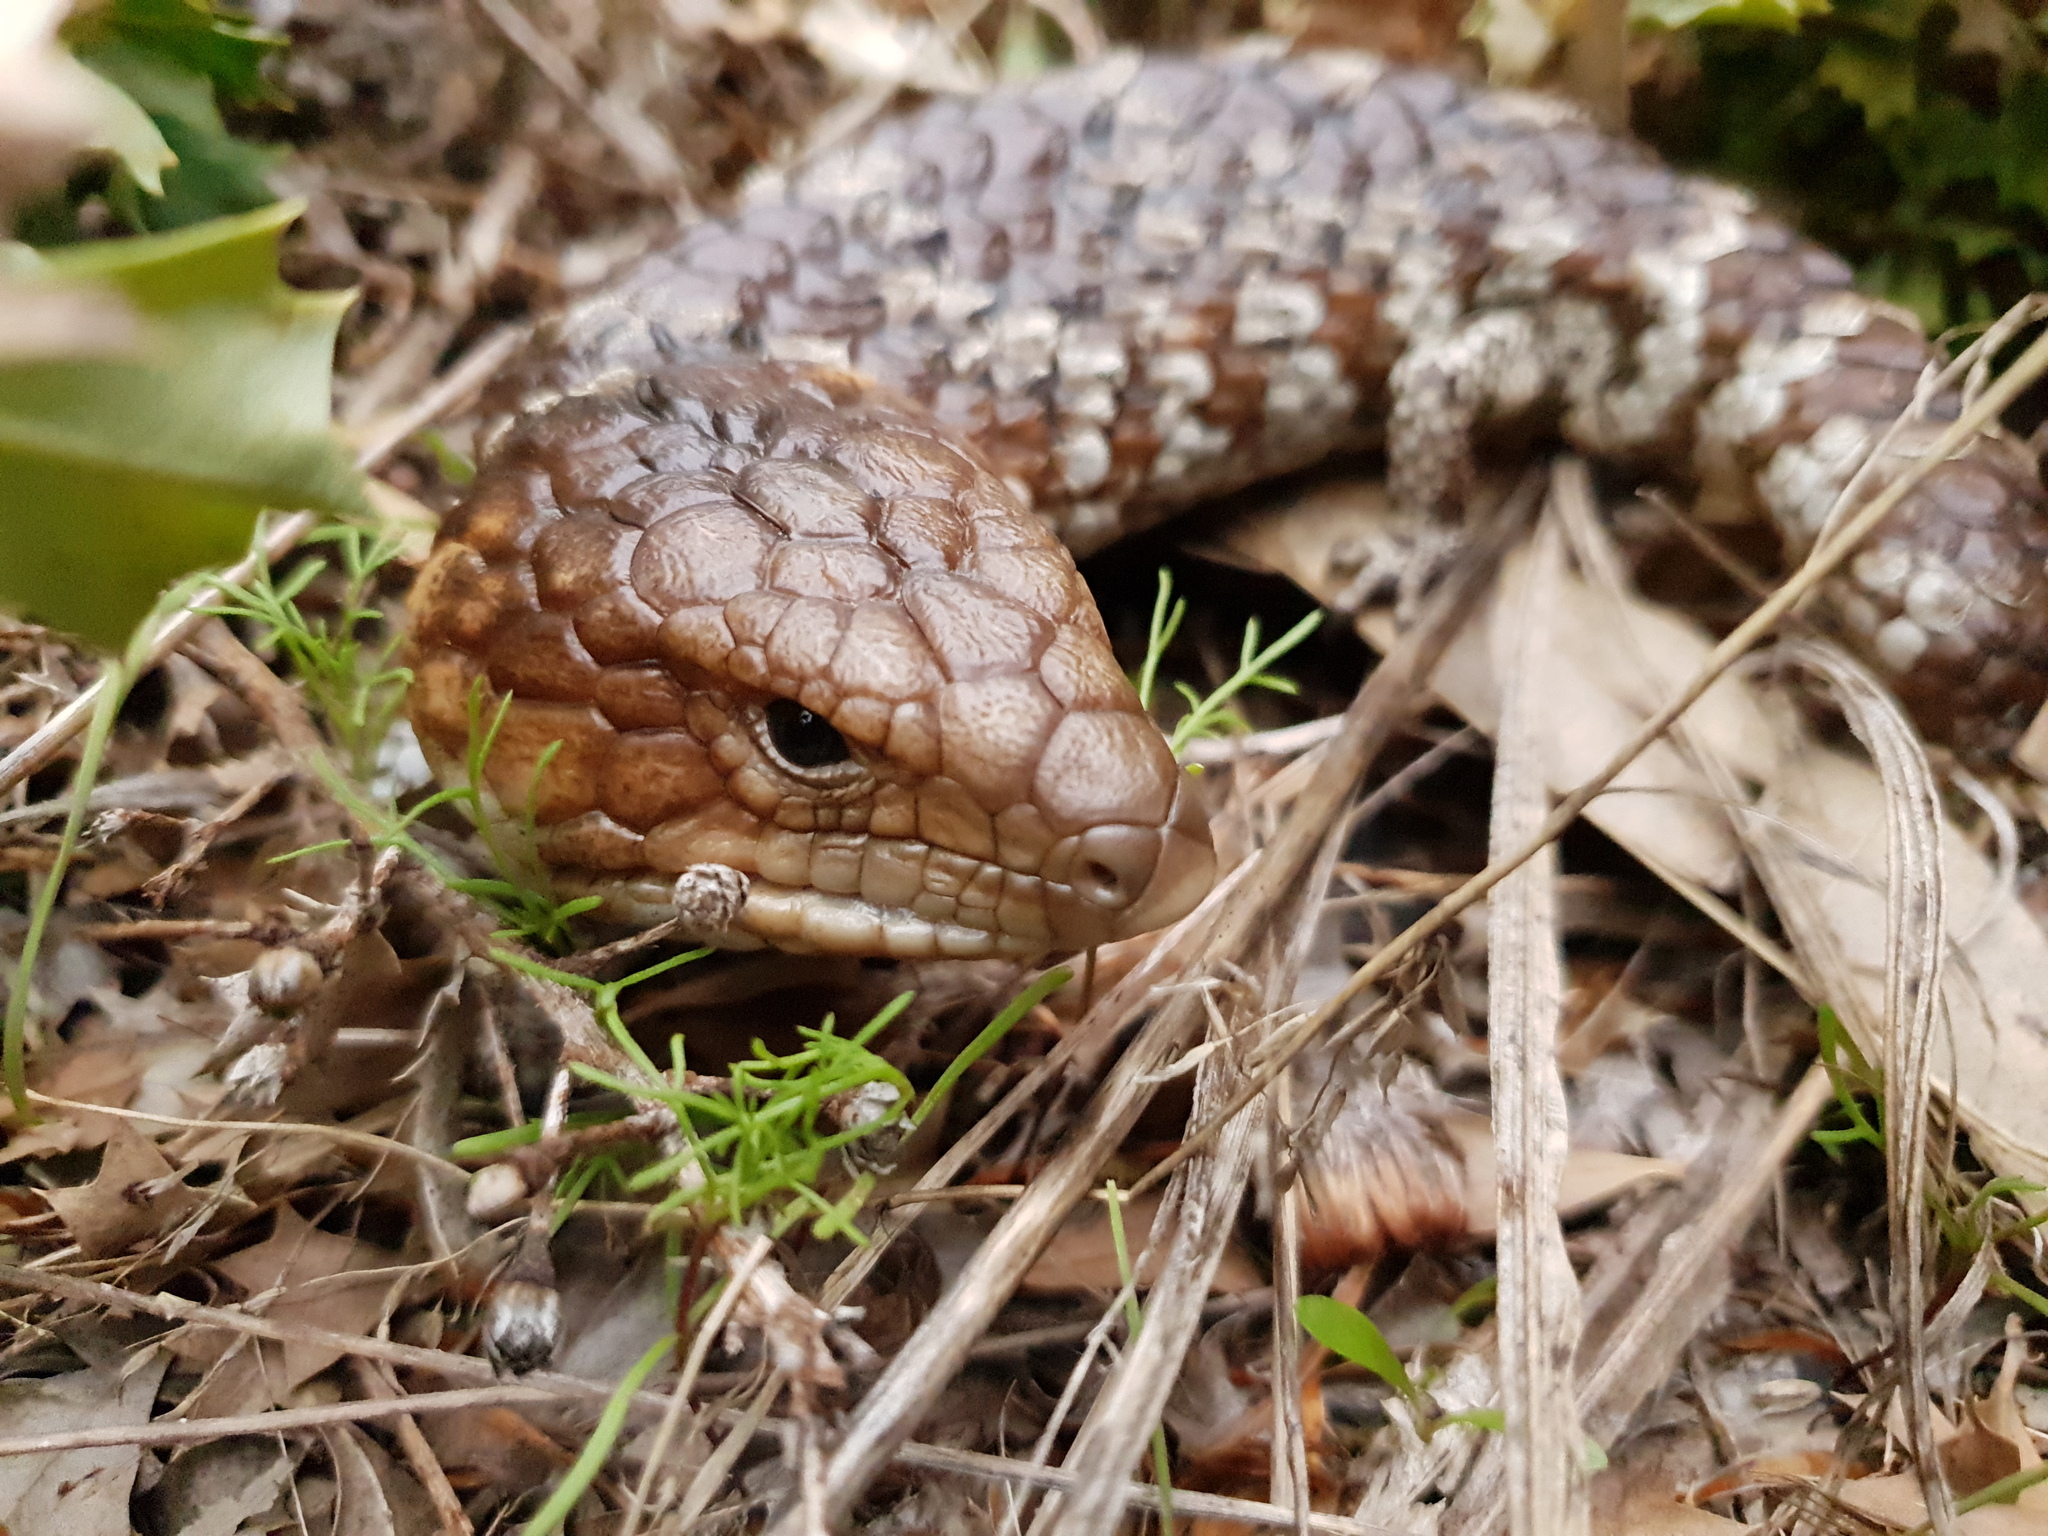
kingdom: Animalia
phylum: Chordata
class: Squamata
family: Scincidae
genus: Tiliqua
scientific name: Tiliqua rugosa
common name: Pinecone lizard
